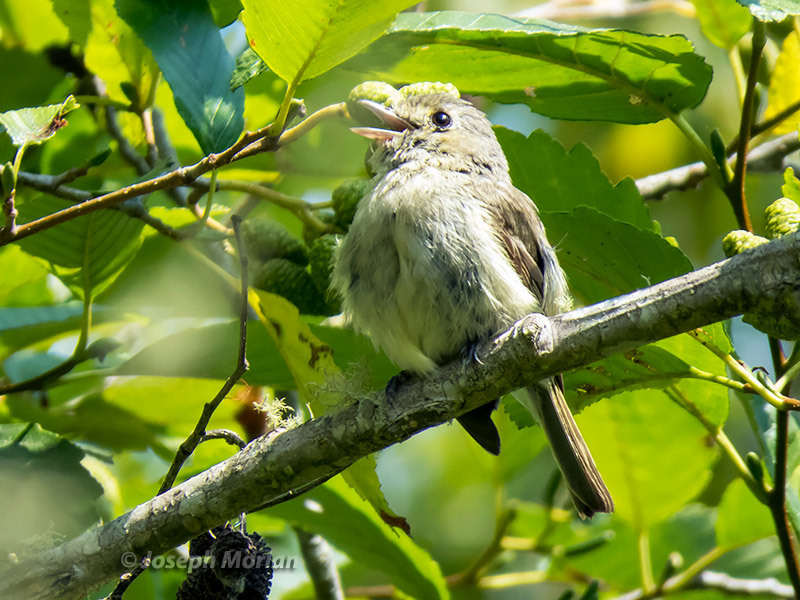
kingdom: Animalia
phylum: Chordata
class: Aves
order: Passeriformes
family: Vireonidae
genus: Vireo
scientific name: Vireo huttoni
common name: Hutton's vireo
